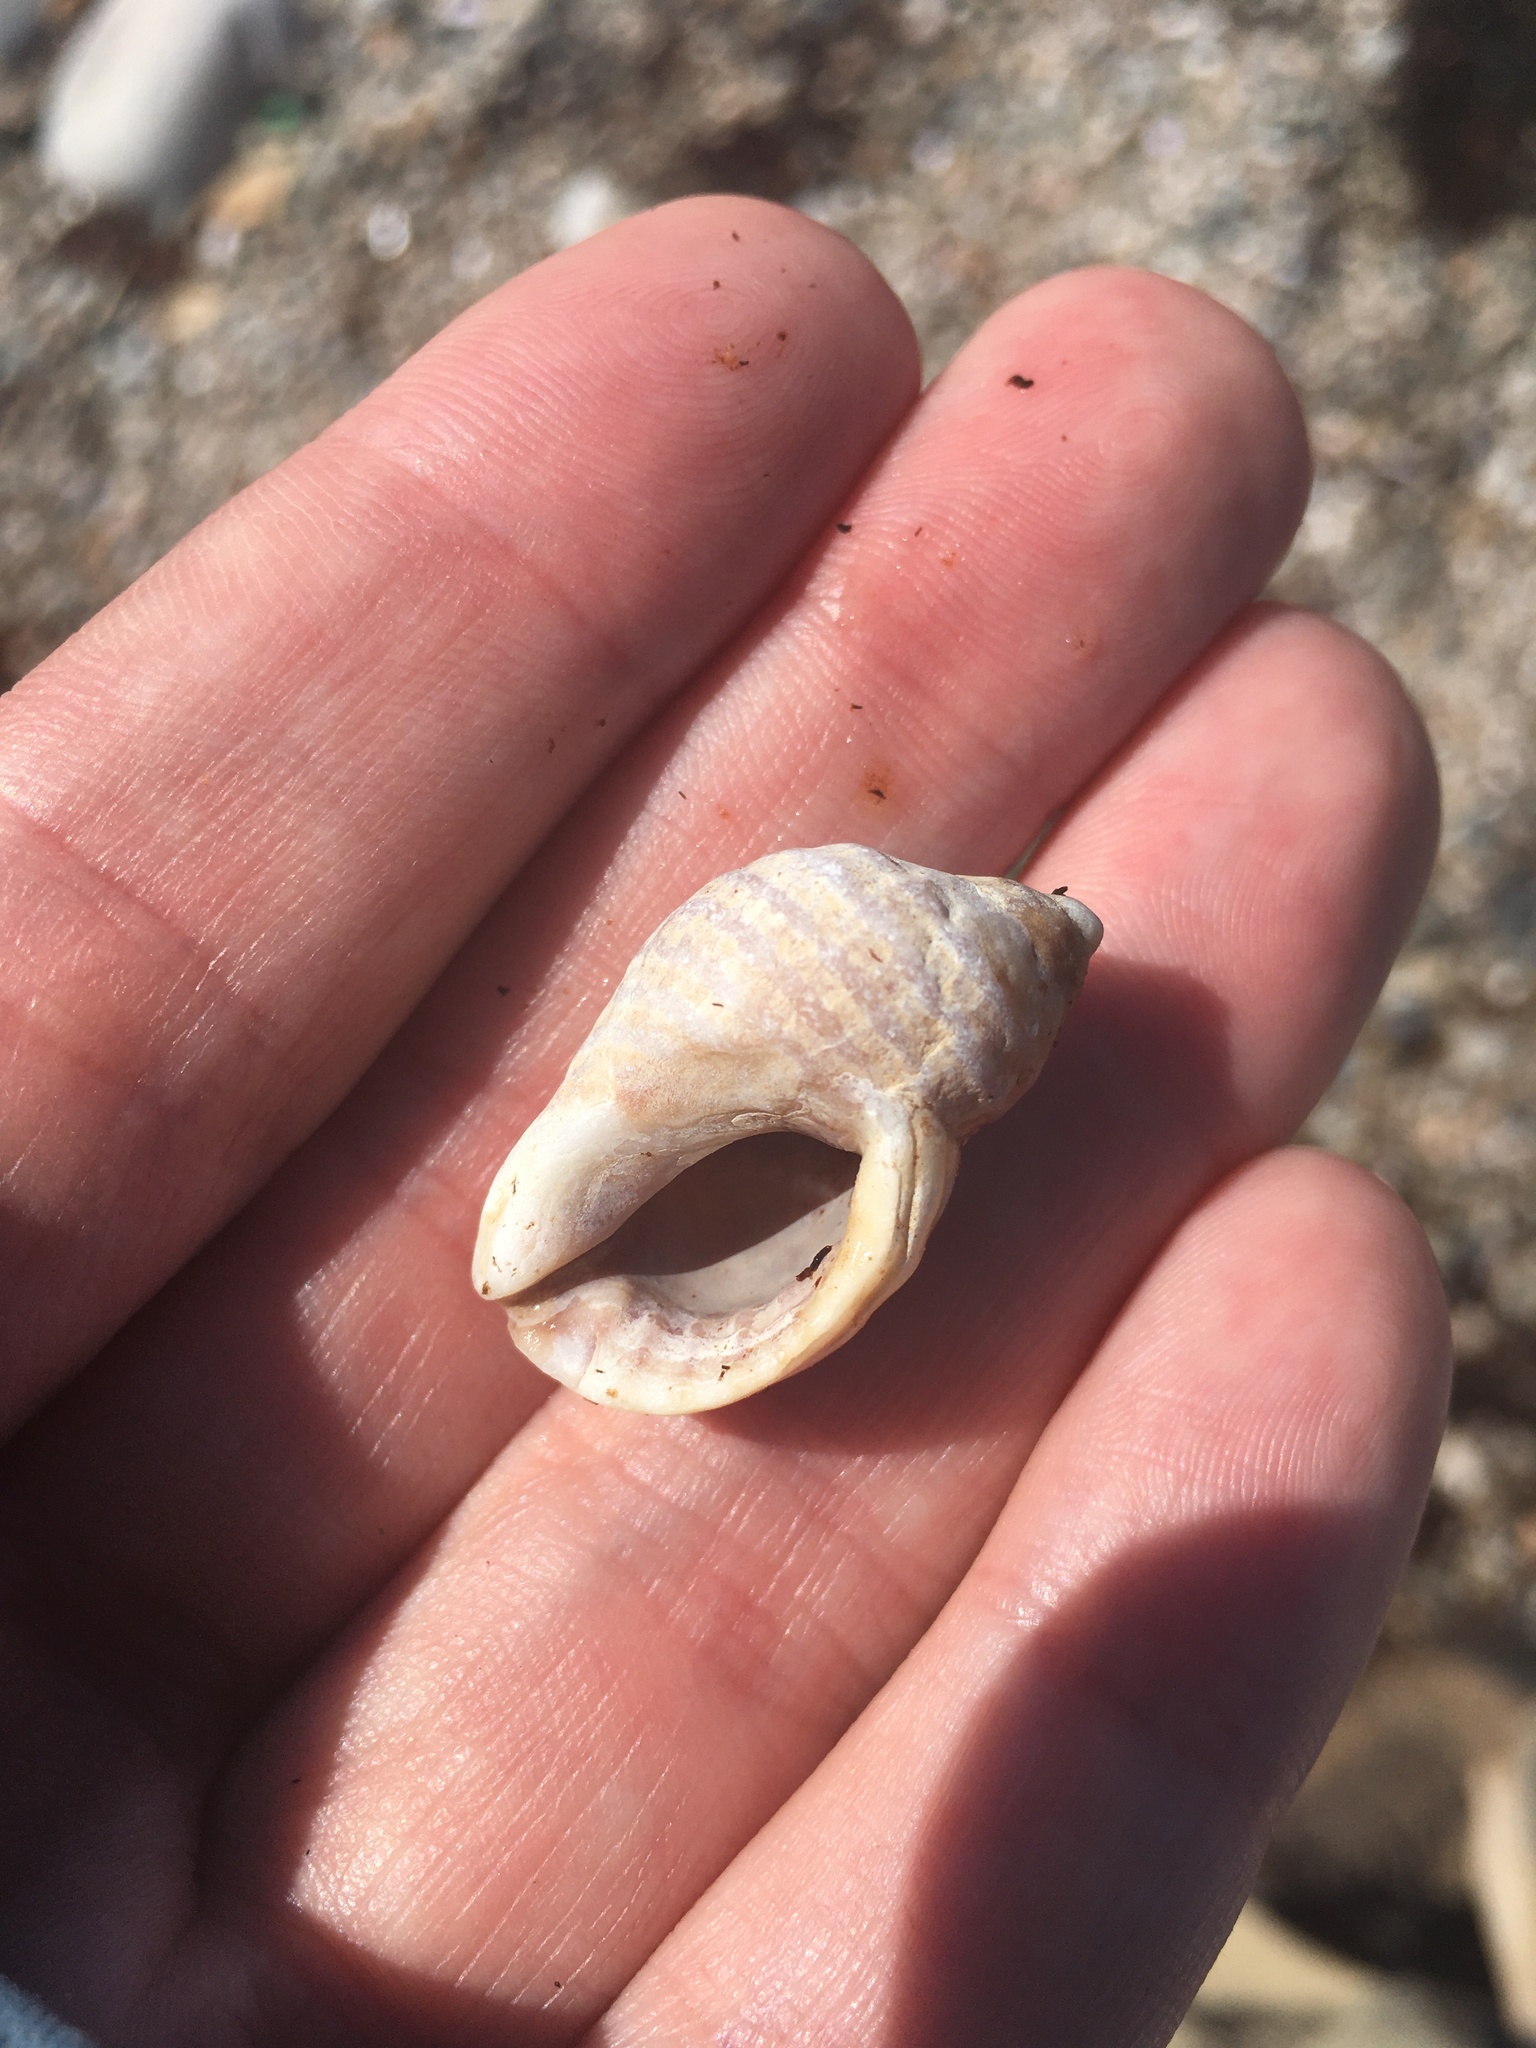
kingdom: Animalia
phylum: Mollusca
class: Gastropoda
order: Neogastropoda
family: Muricidae
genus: Nucella
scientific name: Nucella lapillus
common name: Dog whelk
